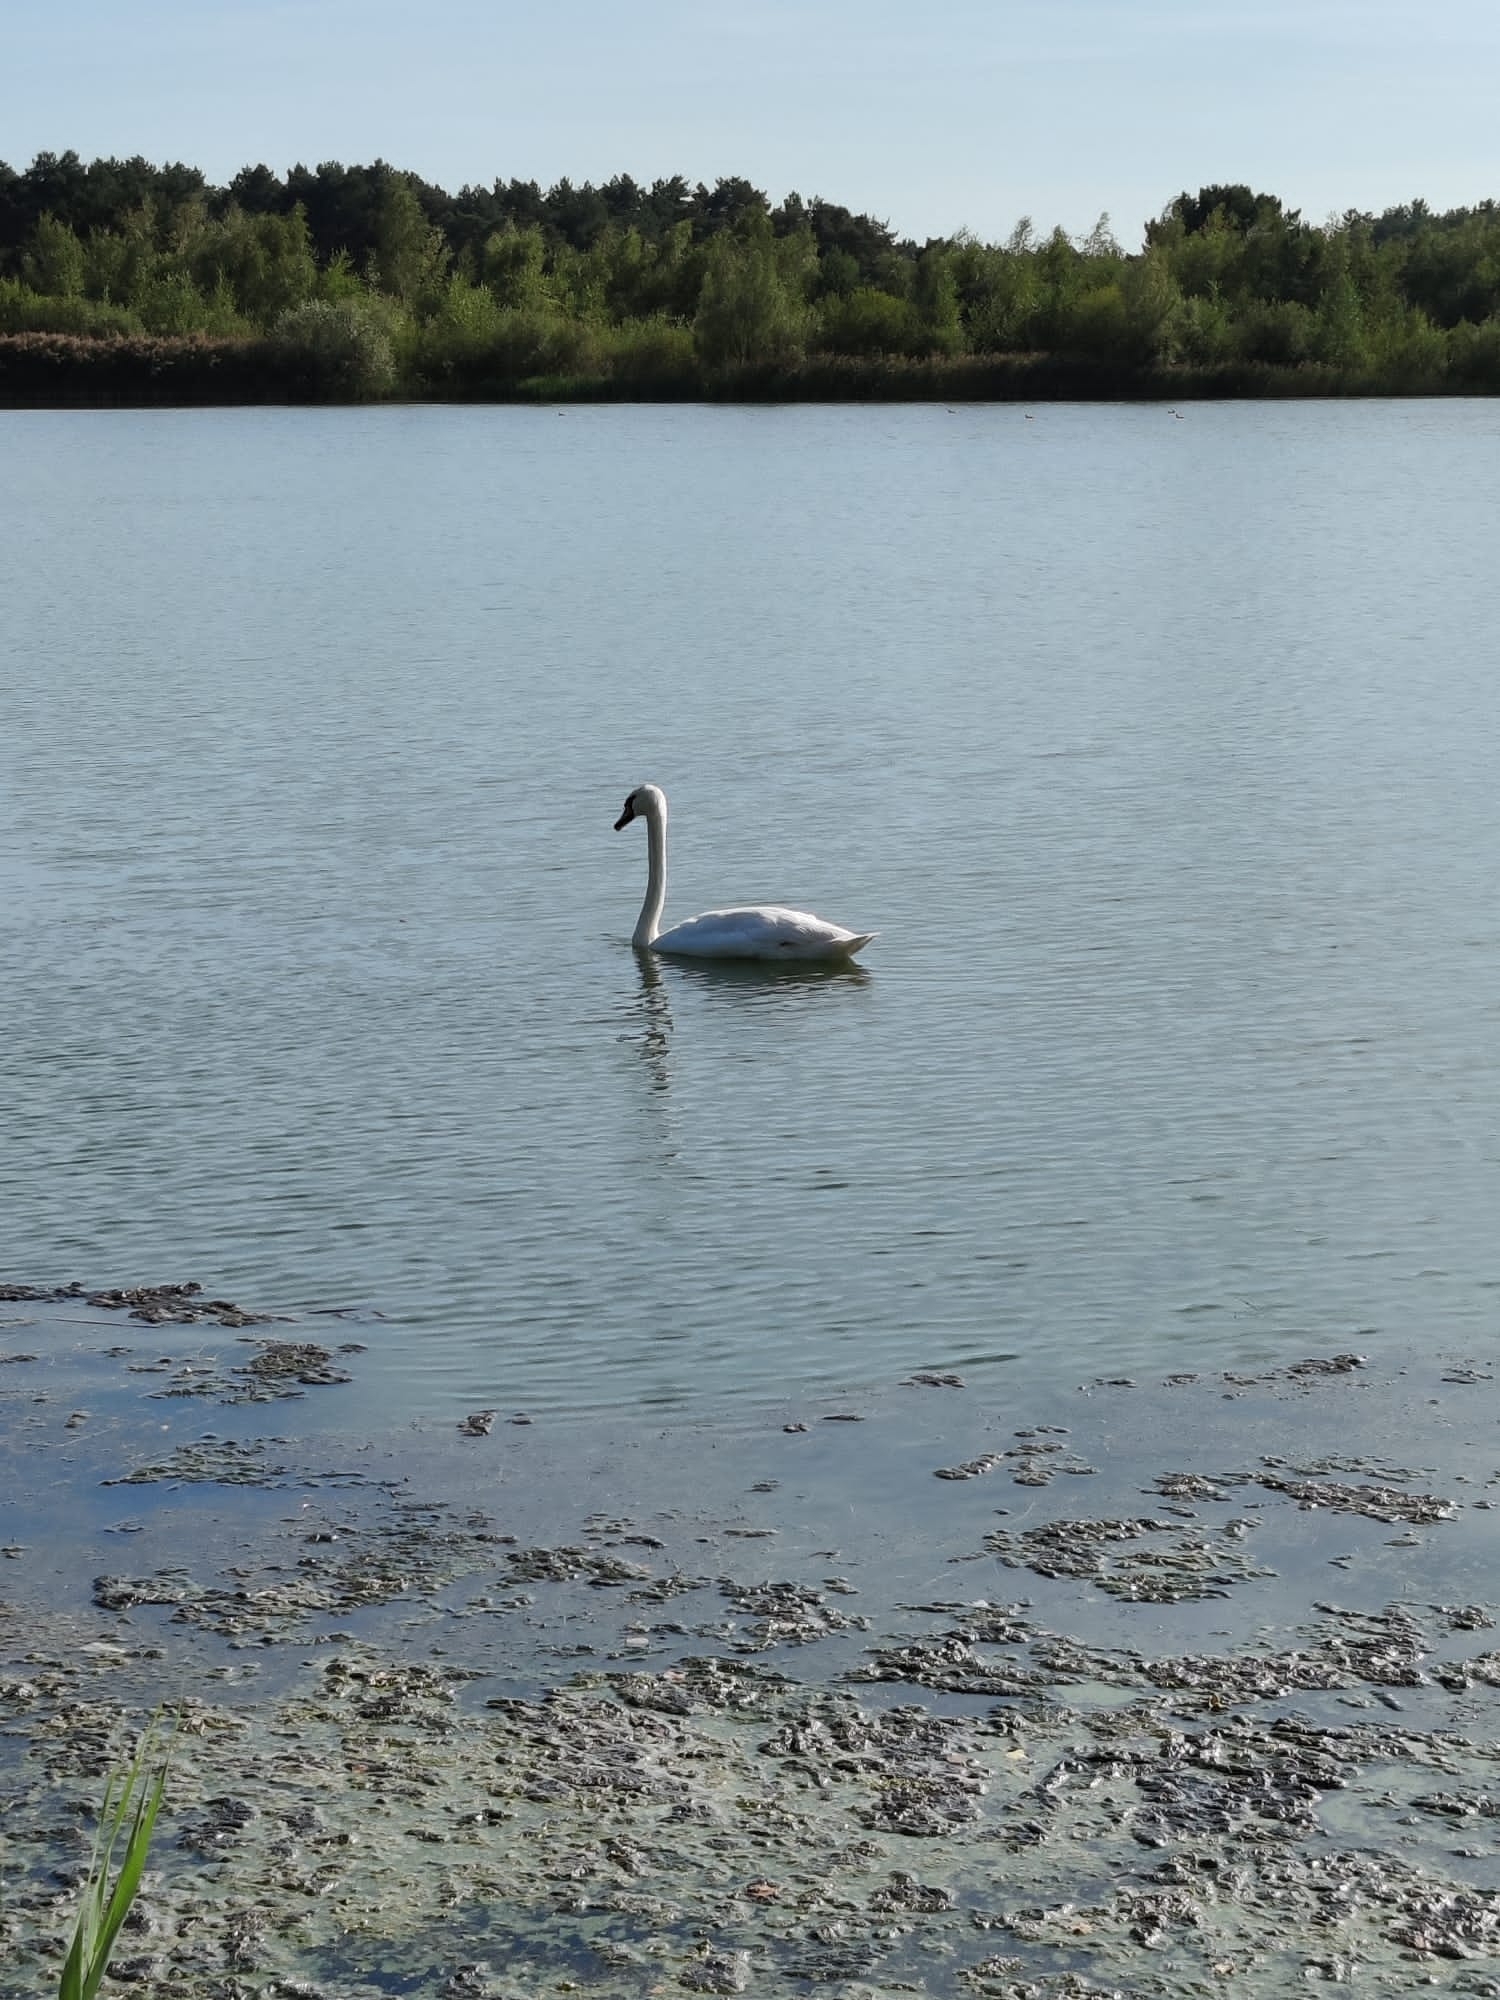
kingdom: Animalia
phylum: Chordata
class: Aves
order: Anseriformes
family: Anatidae
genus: Cygnus
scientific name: Cygnus olor
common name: Mute swan
